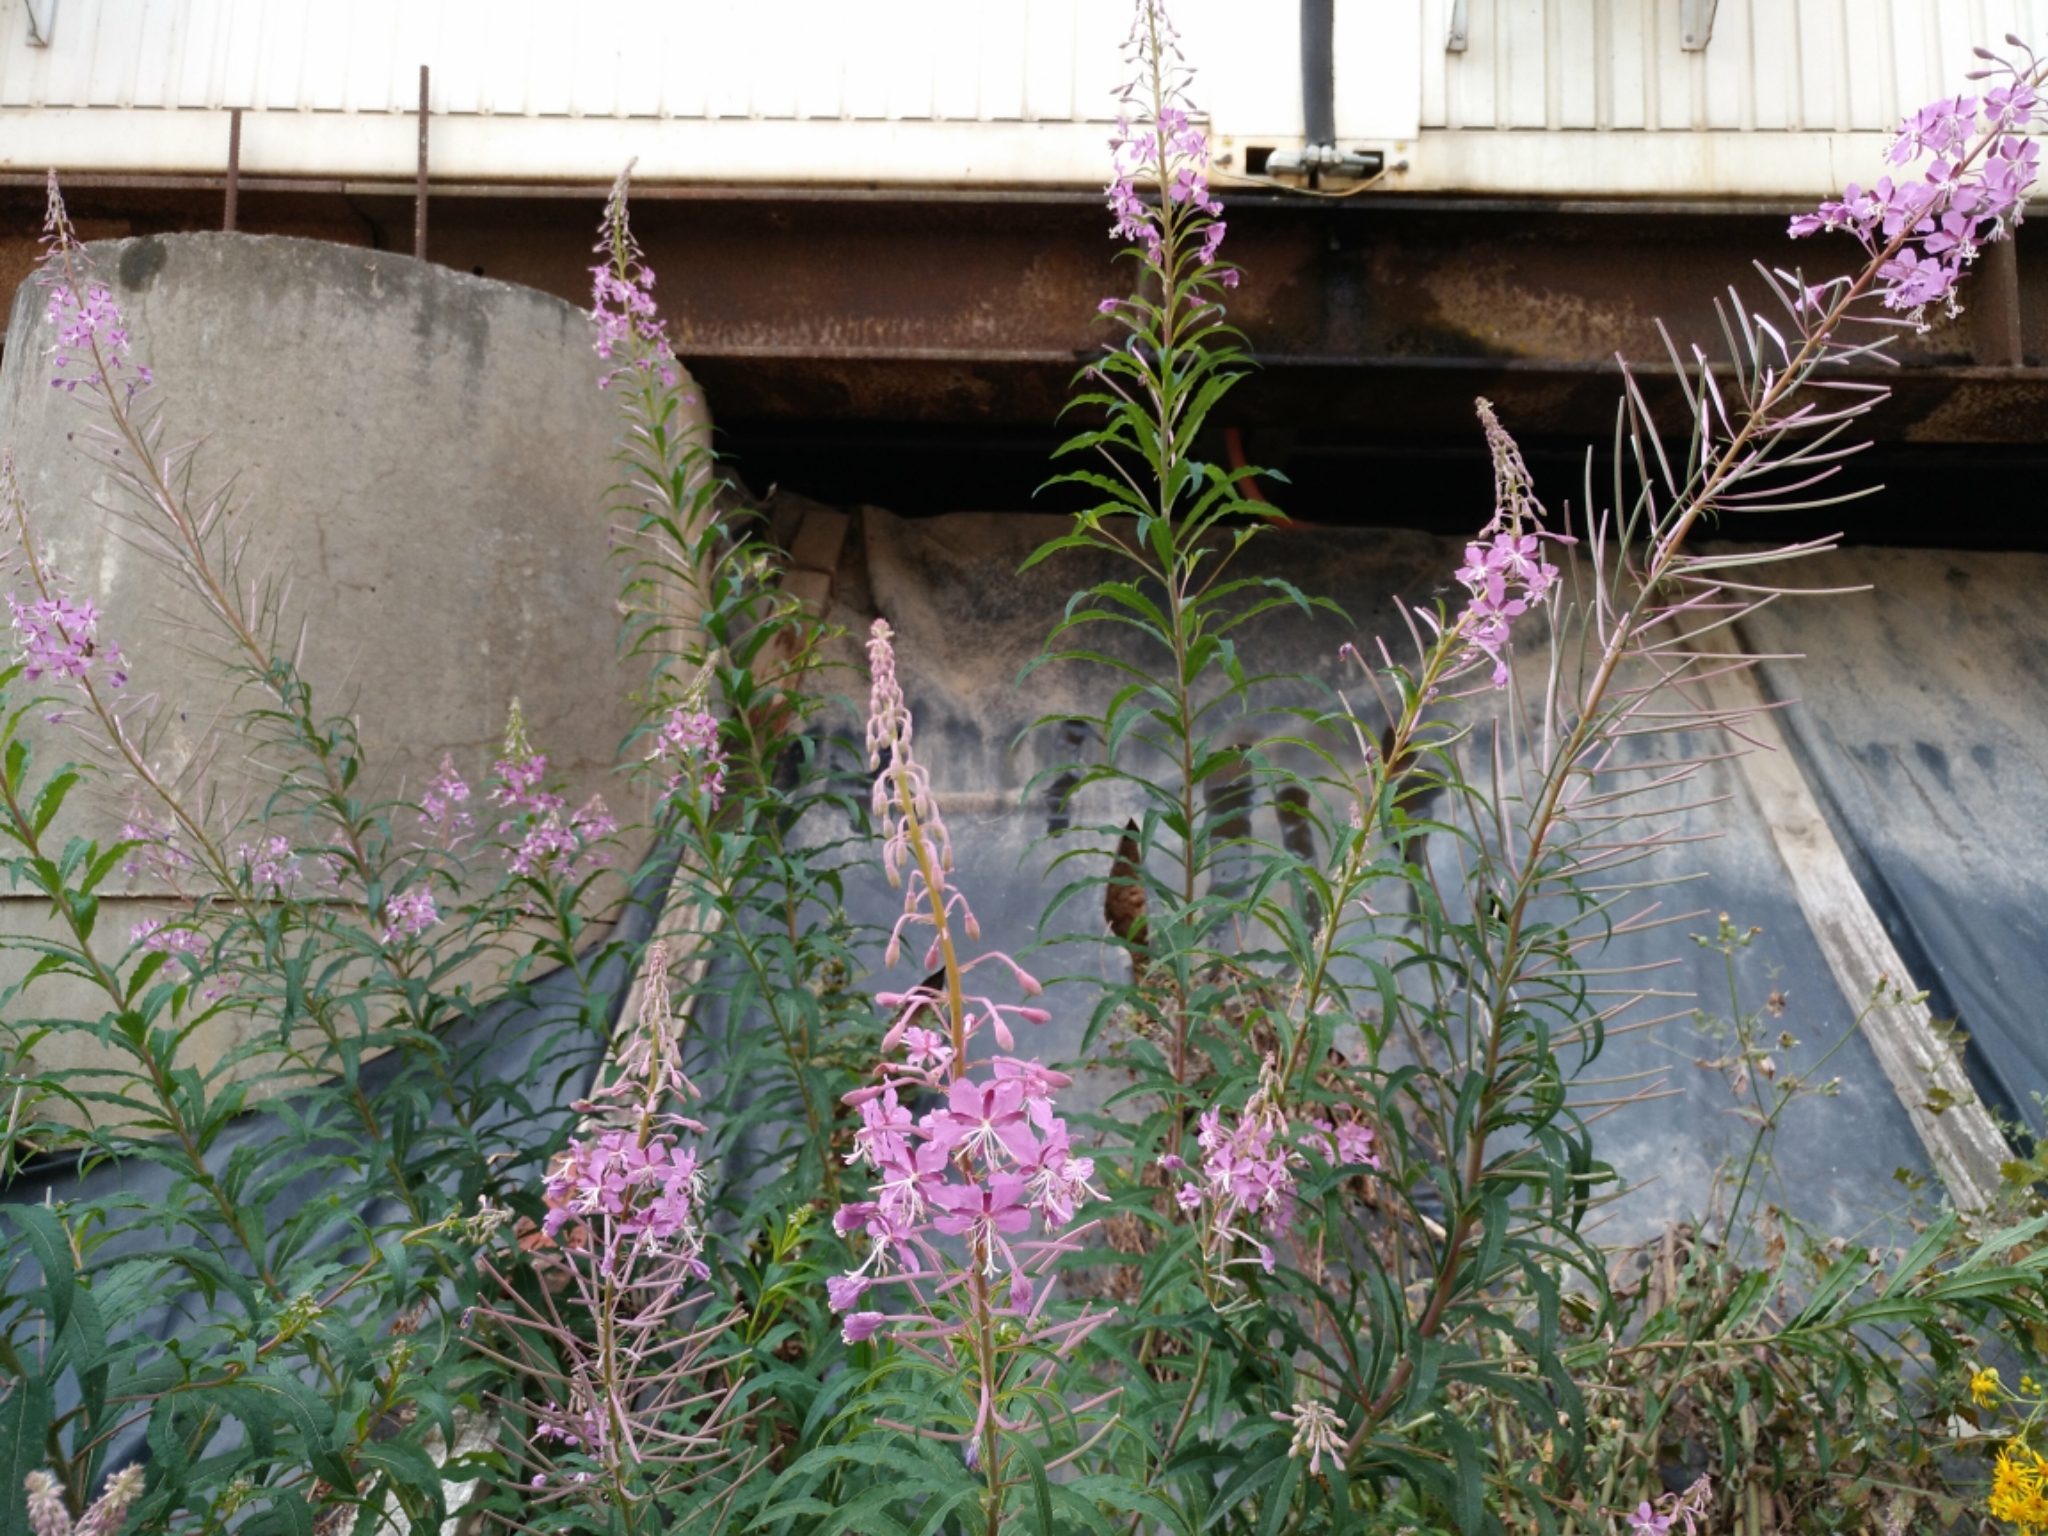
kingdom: Plantae
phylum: Tracheophyta
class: Magnoliopsida
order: Myrtales
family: Onagraceae
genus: Chamaenerion
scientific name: Chamaenerion angustifolium
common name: Fireweed
